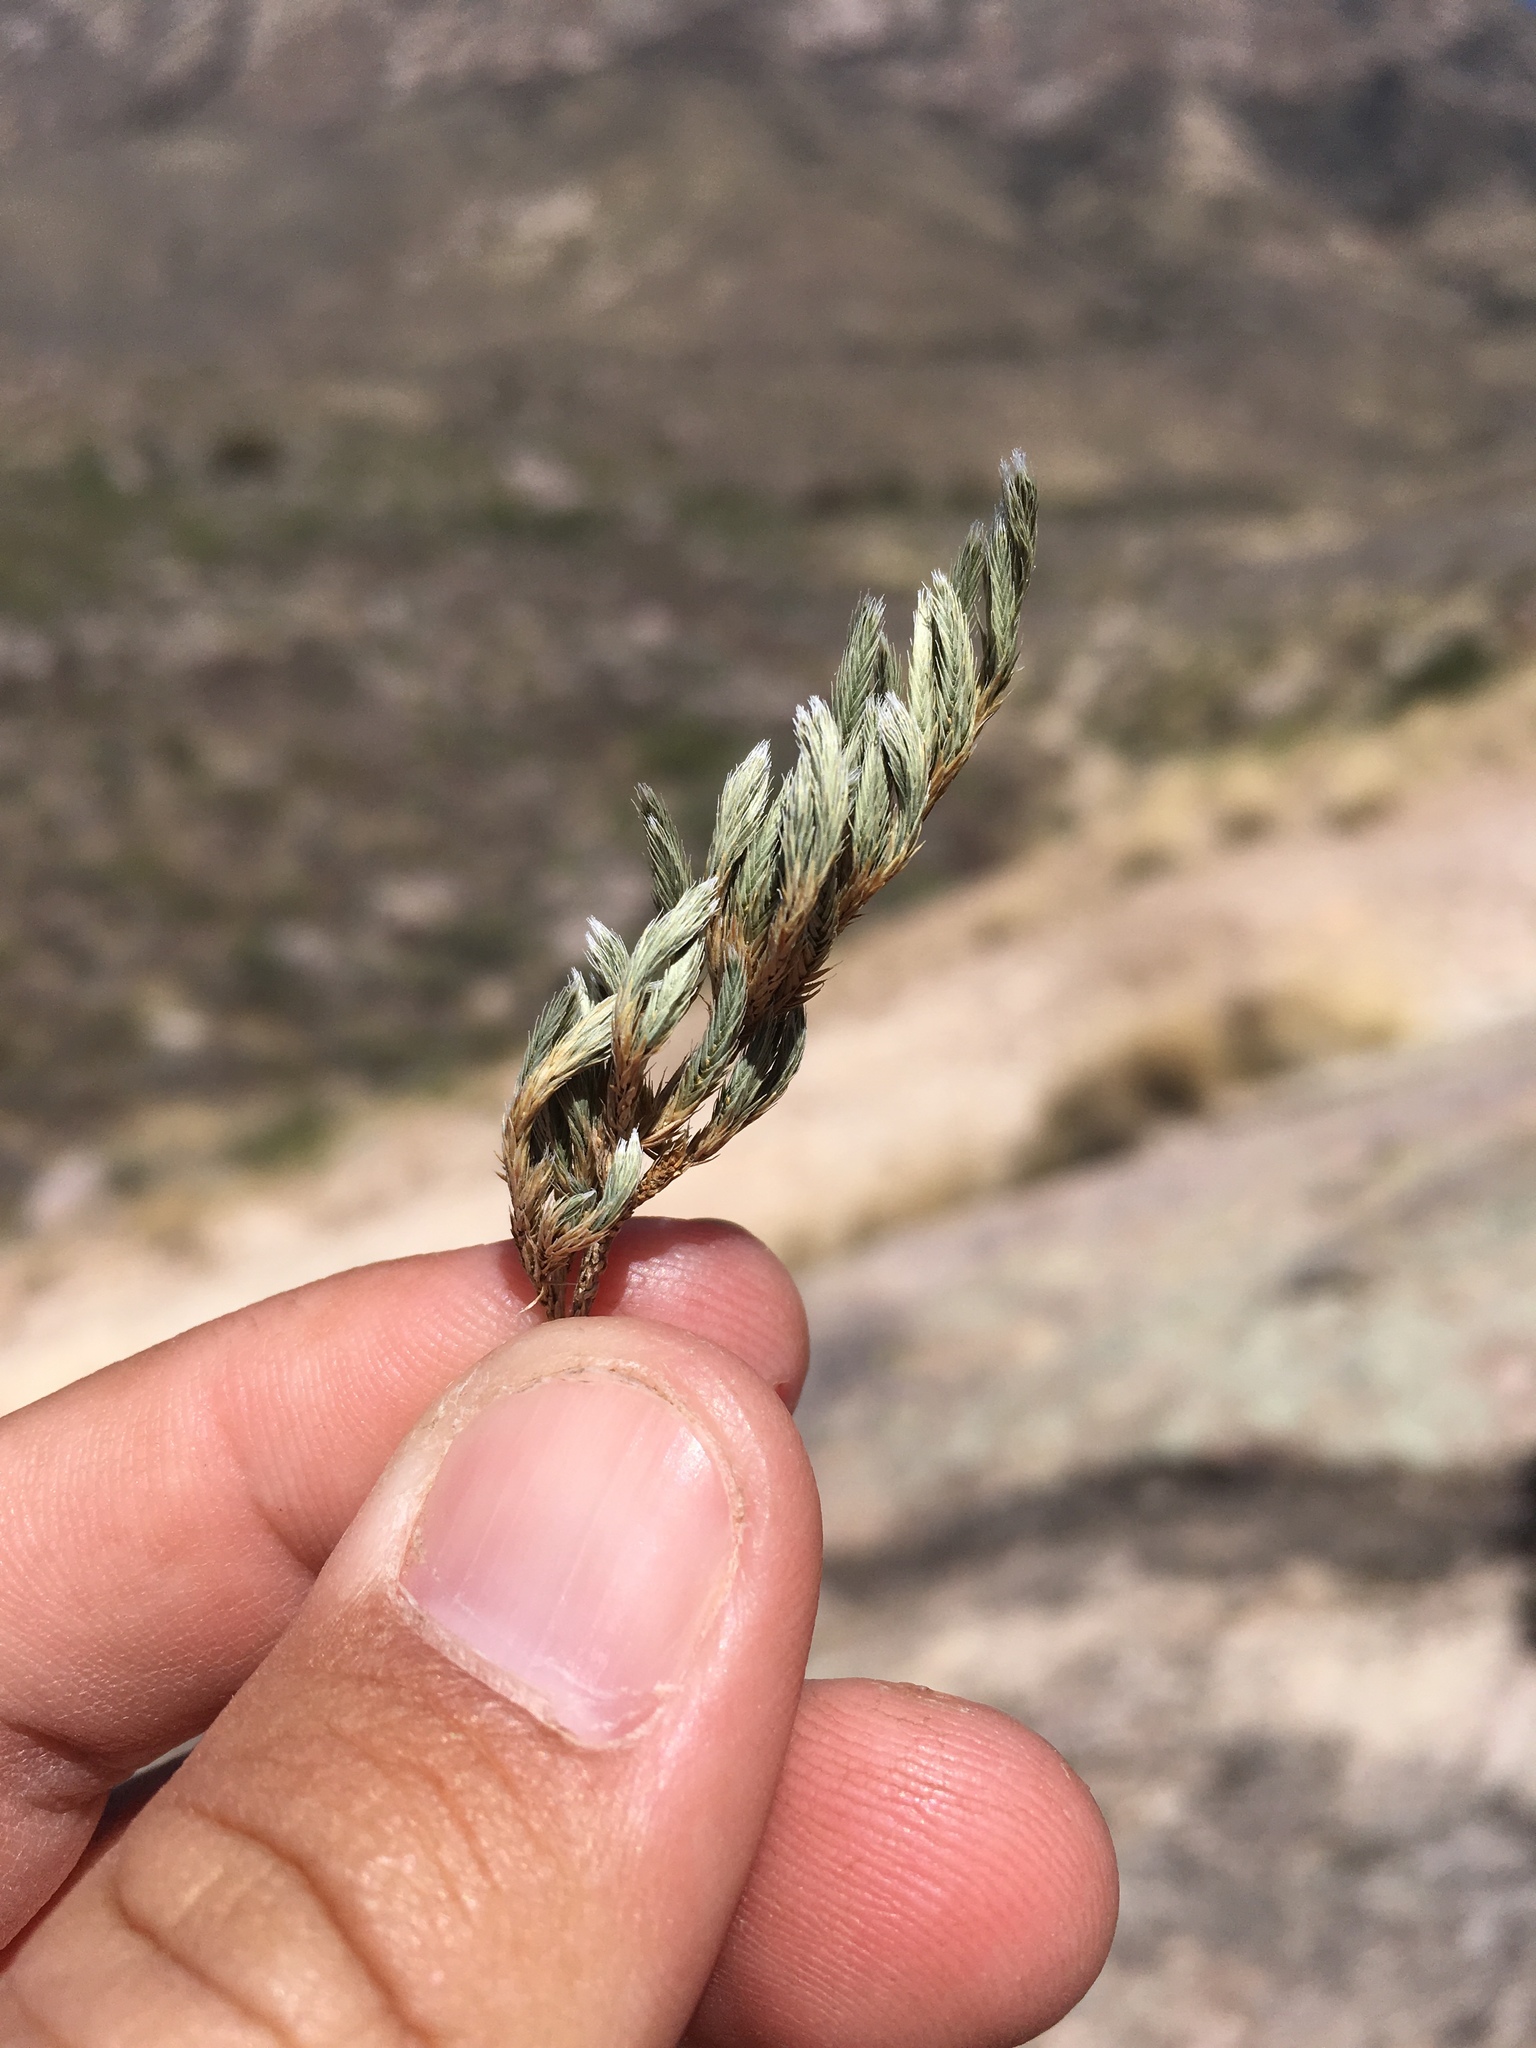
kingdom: Plantae
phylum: Tracheophyta
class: Lycopodiopsida
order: Selaginellales
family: Selaginellaceae
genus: Selaginella
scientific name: Selaginella rupincola
